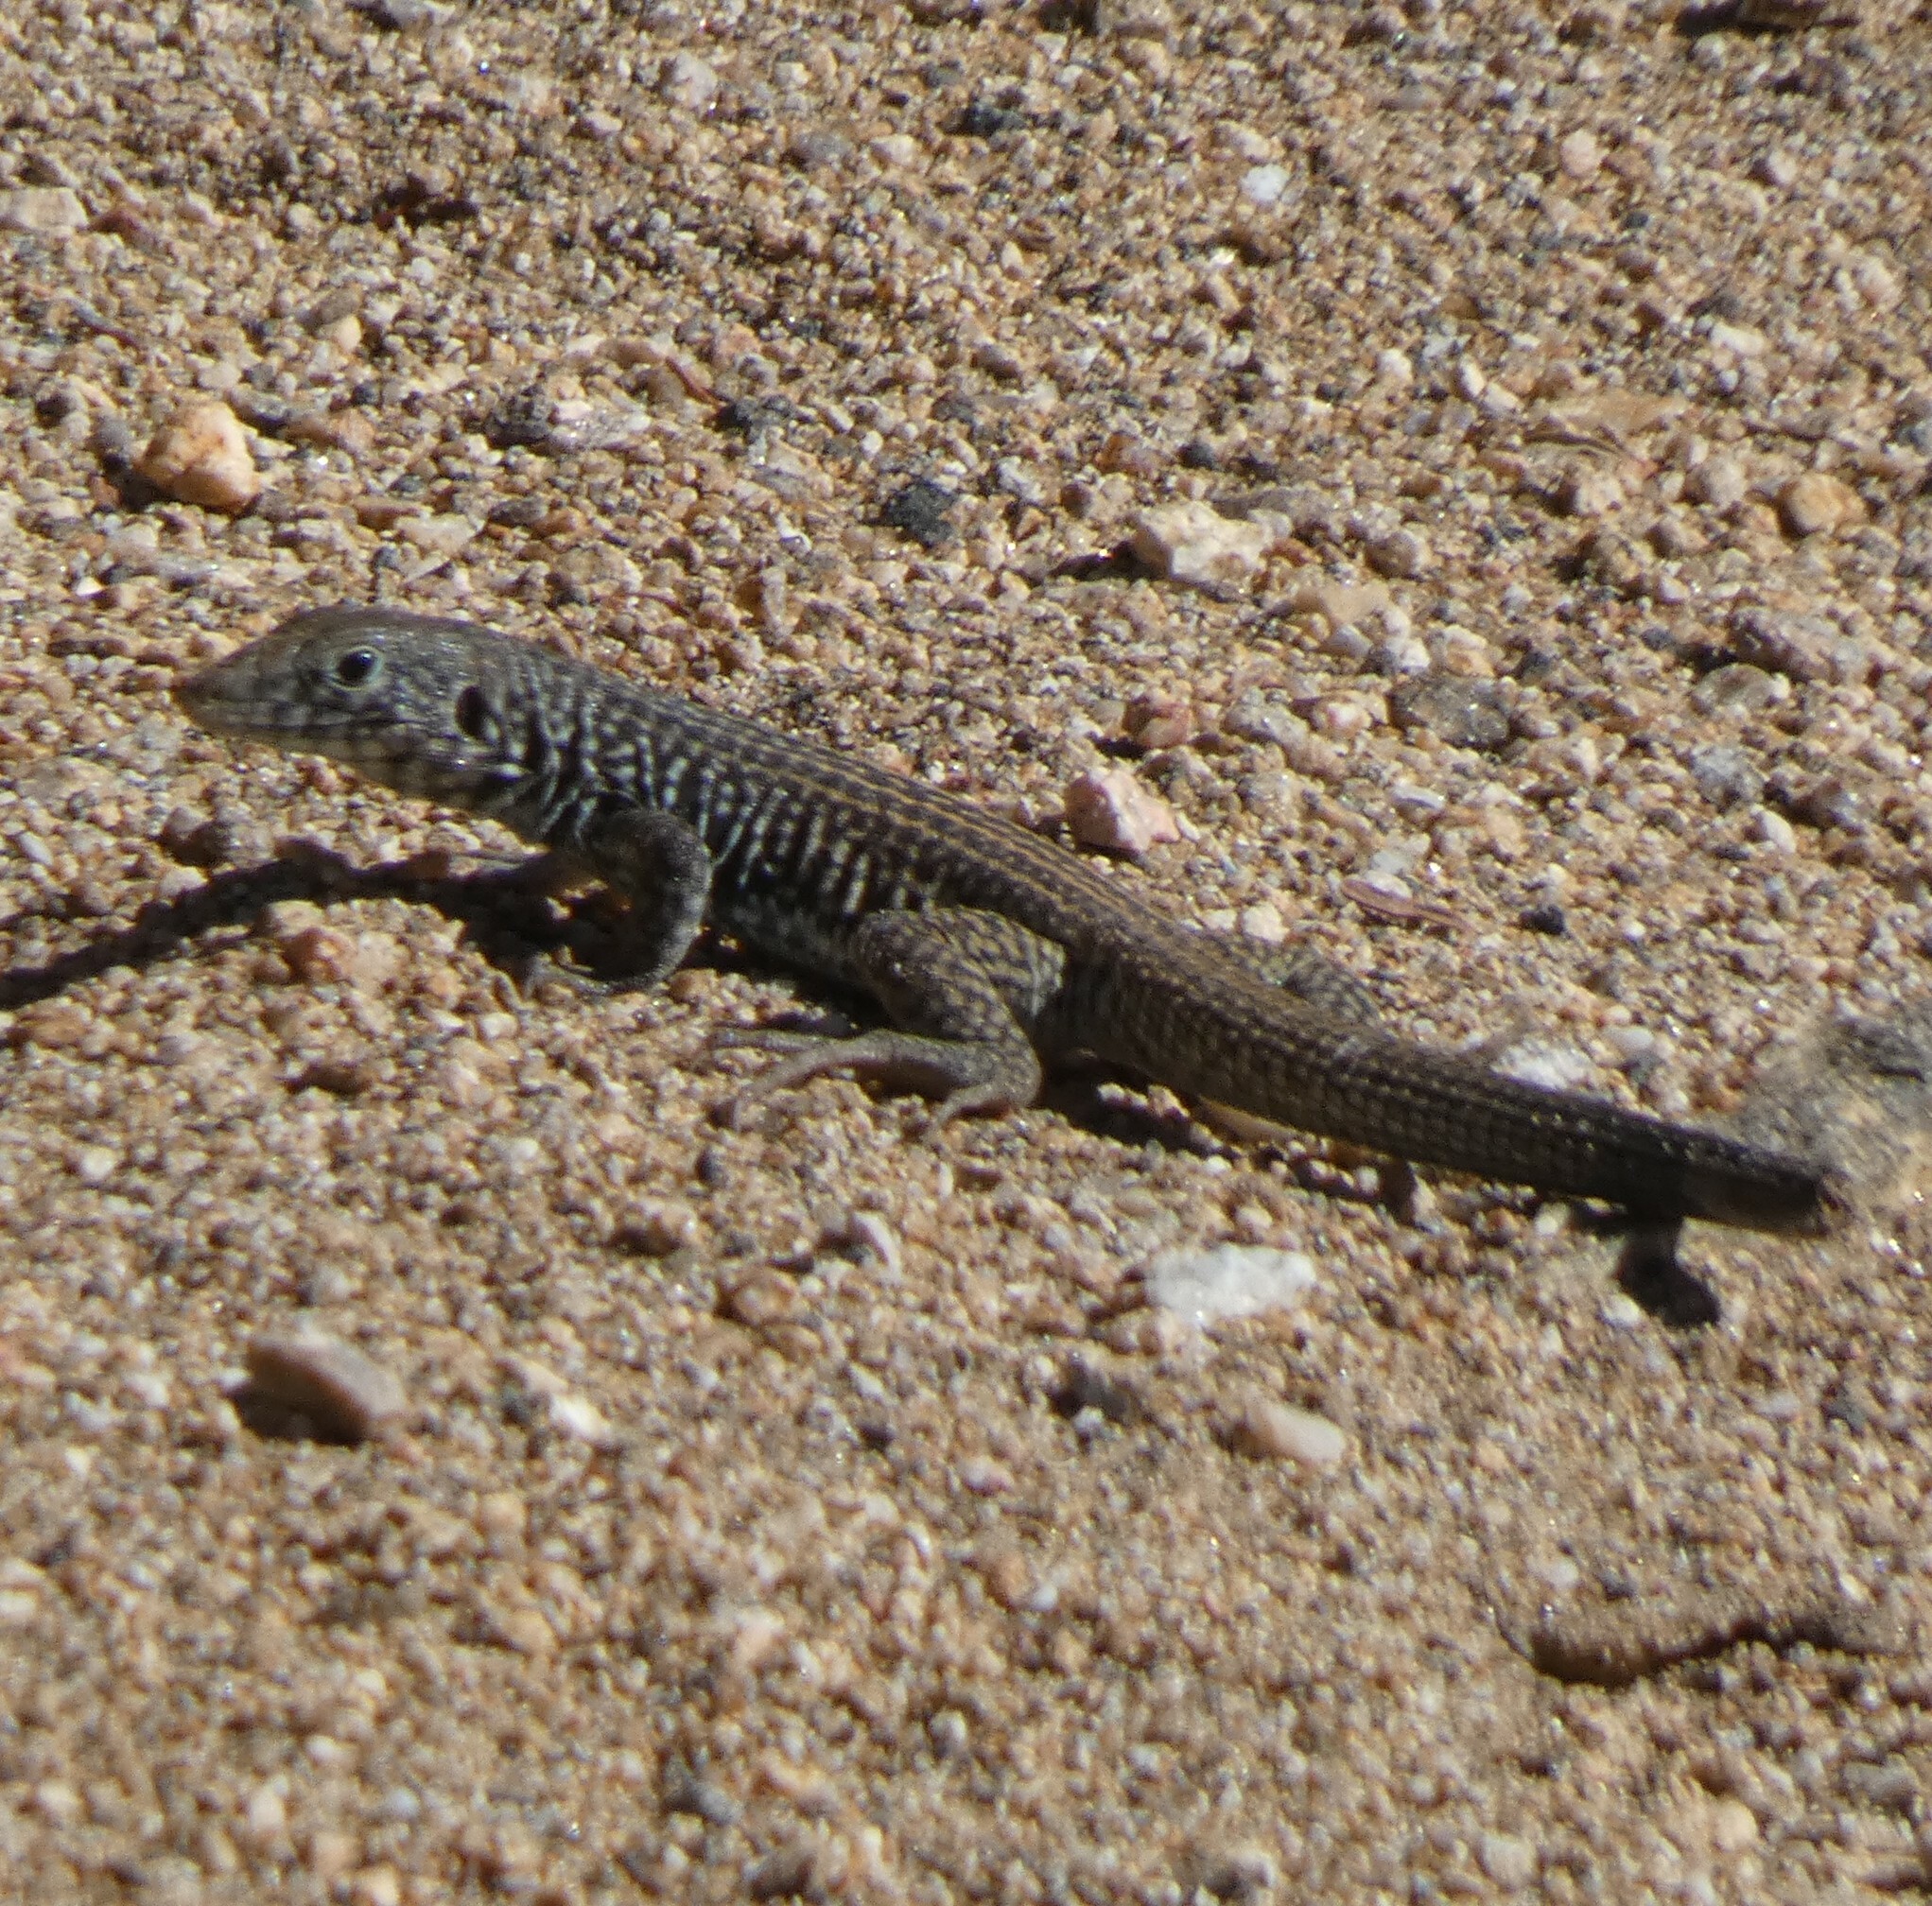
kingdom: Animalia
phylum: Chordata
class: Squamata
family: Teiidae
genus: Aspidoscelis
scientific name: Aspidoscelis tigris
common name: Tiger whiptail
